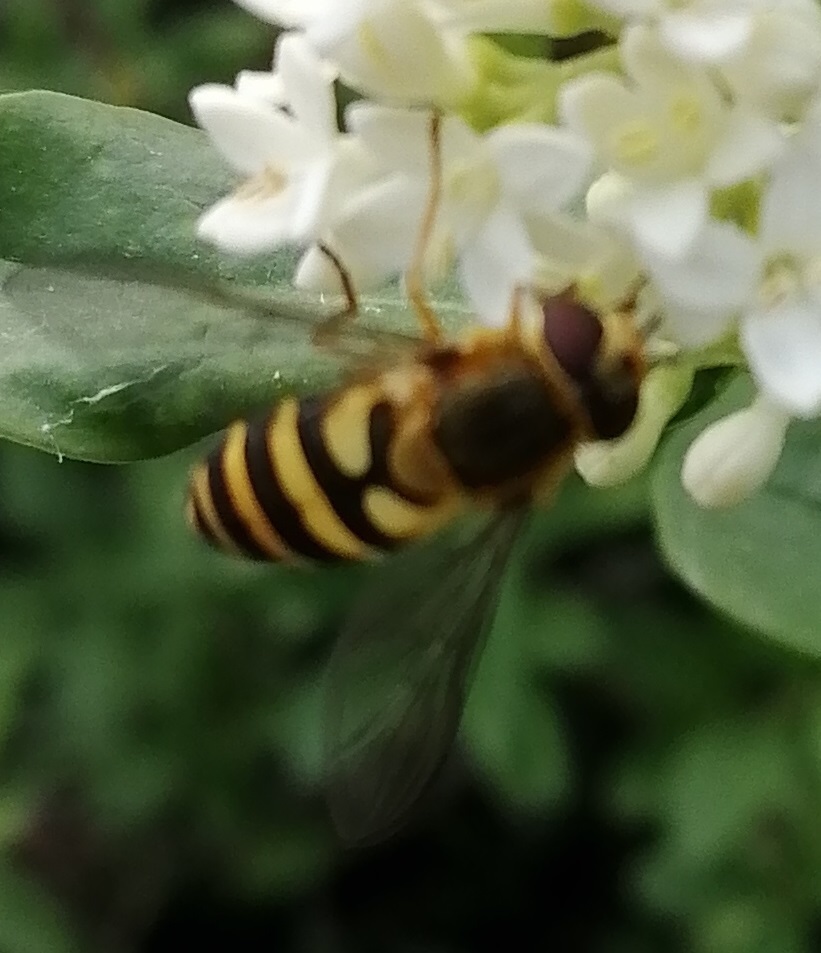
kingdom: Animalia
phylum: Arthropoda
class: Insecta
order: Diptera
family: Syrphidae
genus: Syrphus
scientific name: Syrphus
